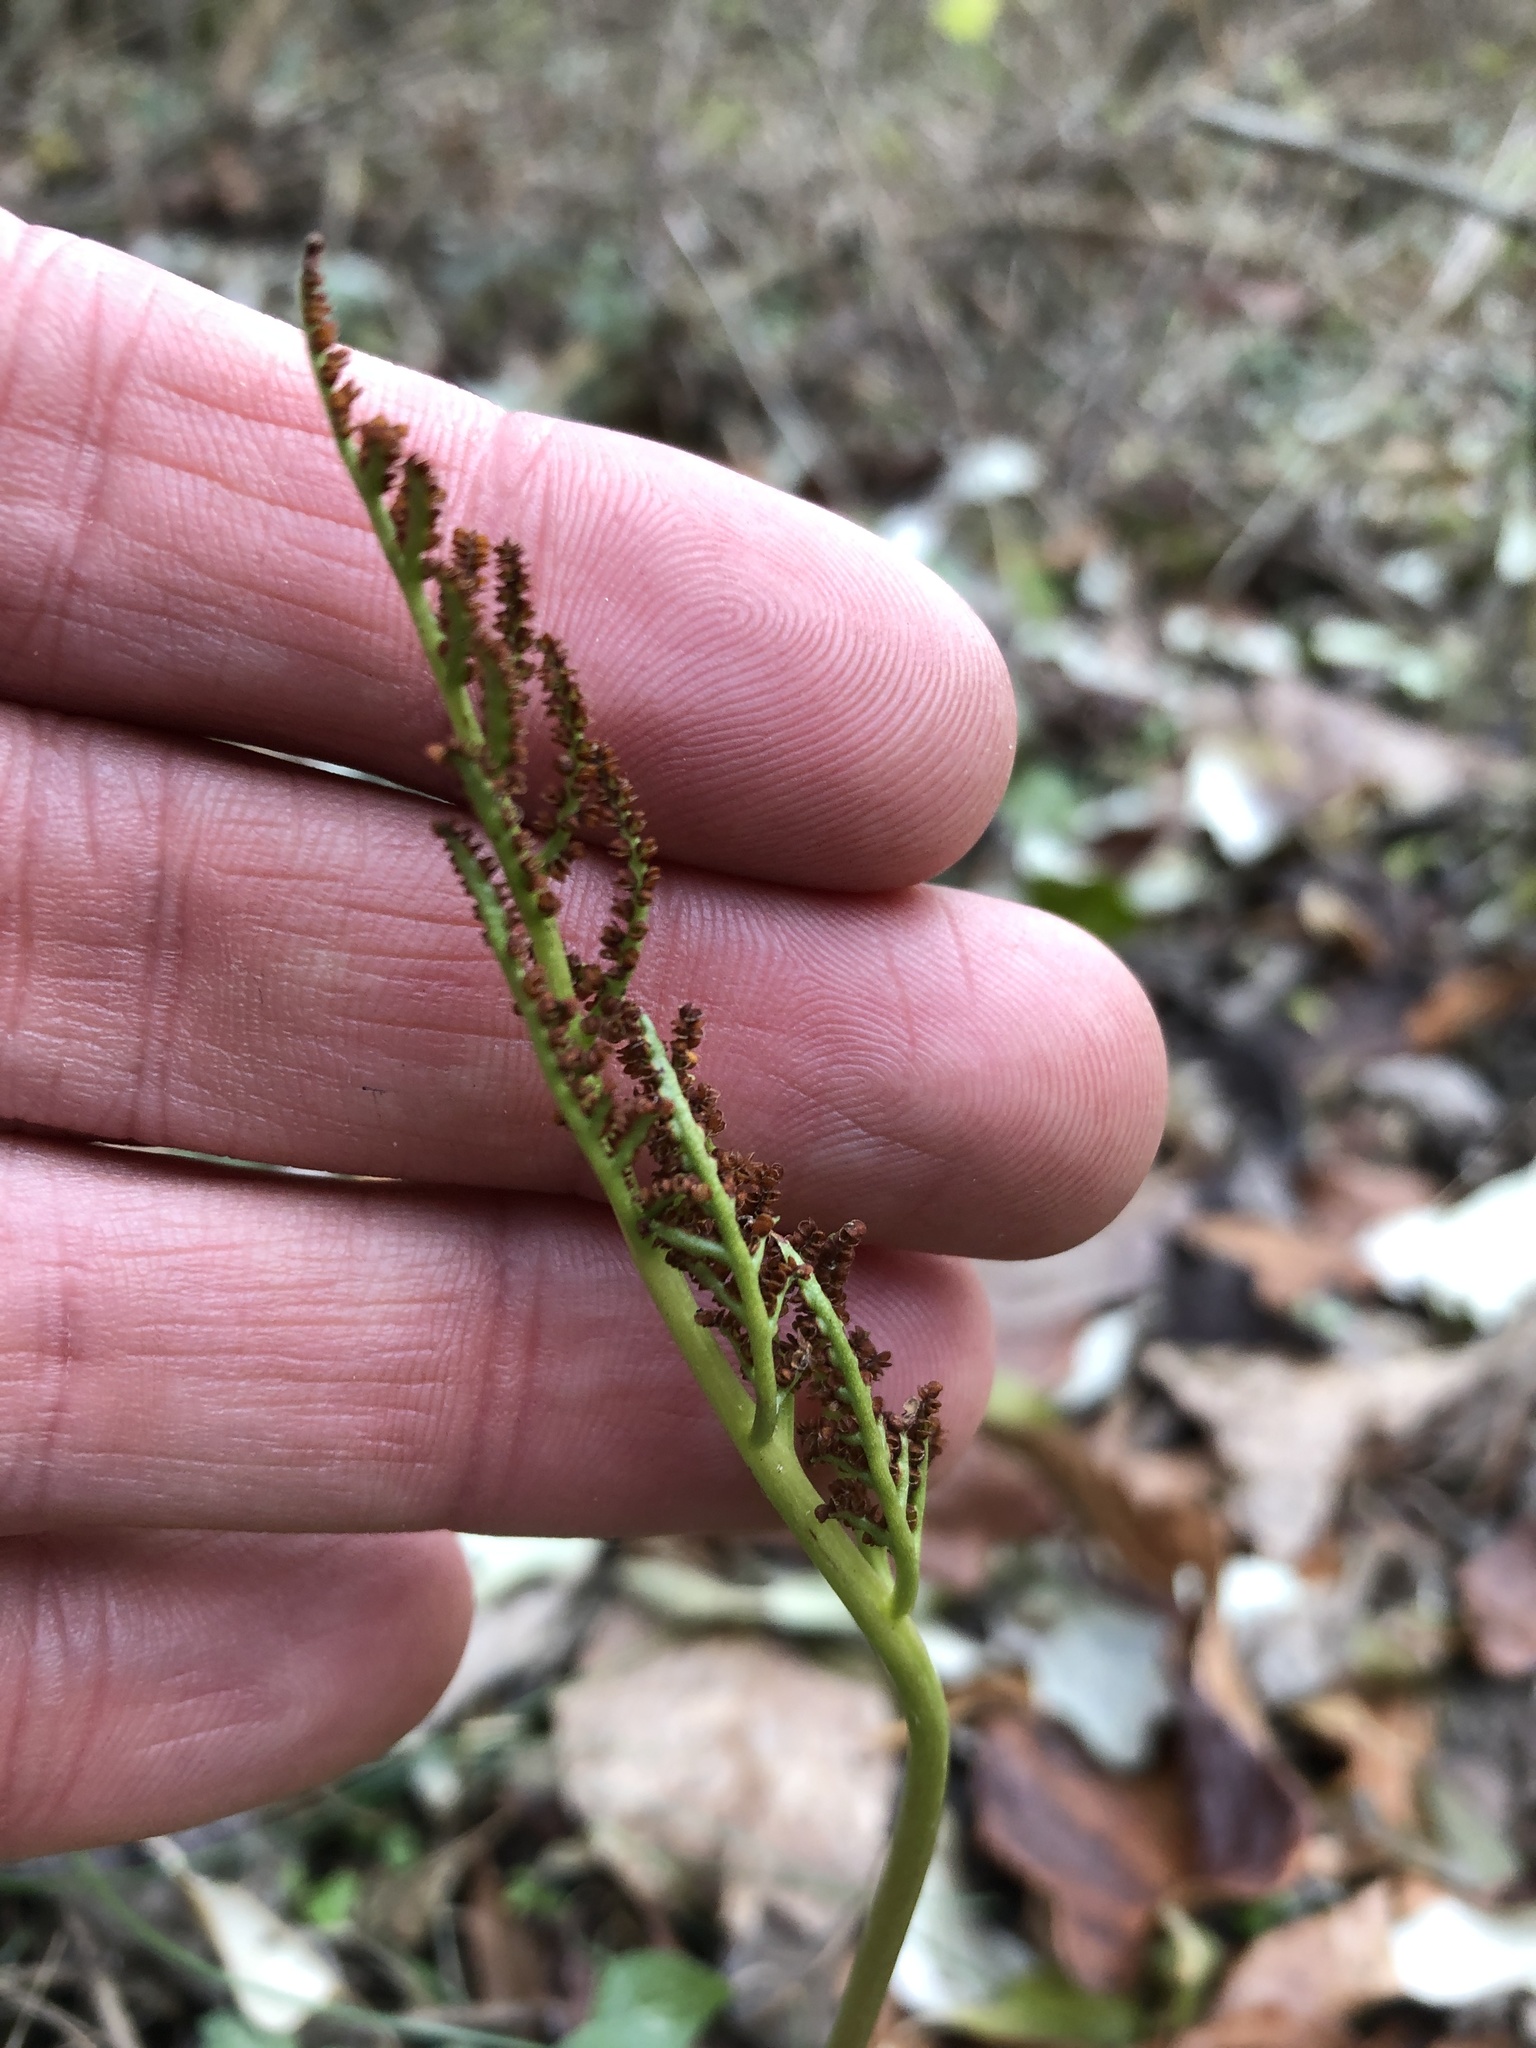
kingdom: Plantae
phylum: Tracheophyta
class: Polypodiopsida
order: Ophioglossales
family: Ophioglossaceae
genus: Sceptridium
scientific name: Sceptridium dissectum
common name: Cut-leaved grapefern
